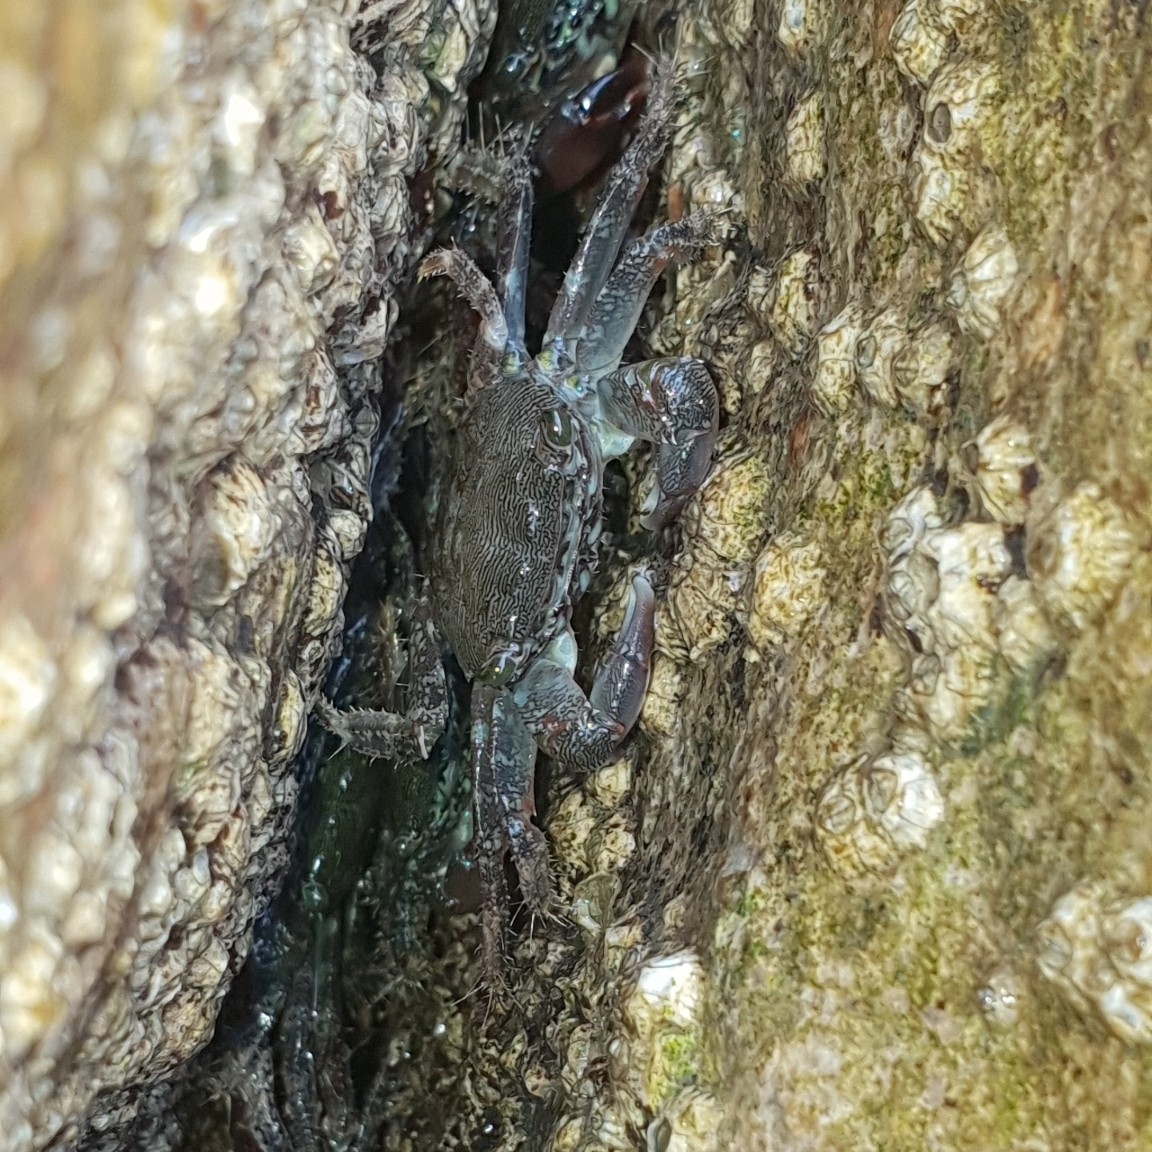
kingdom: Animalia
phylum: Arthropoda
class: Malacostraca
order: Decapoda
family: Grapsidae
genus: Pachygrapsus
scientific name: Pachygrapsus marmoratus
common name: Marbled rock crab
